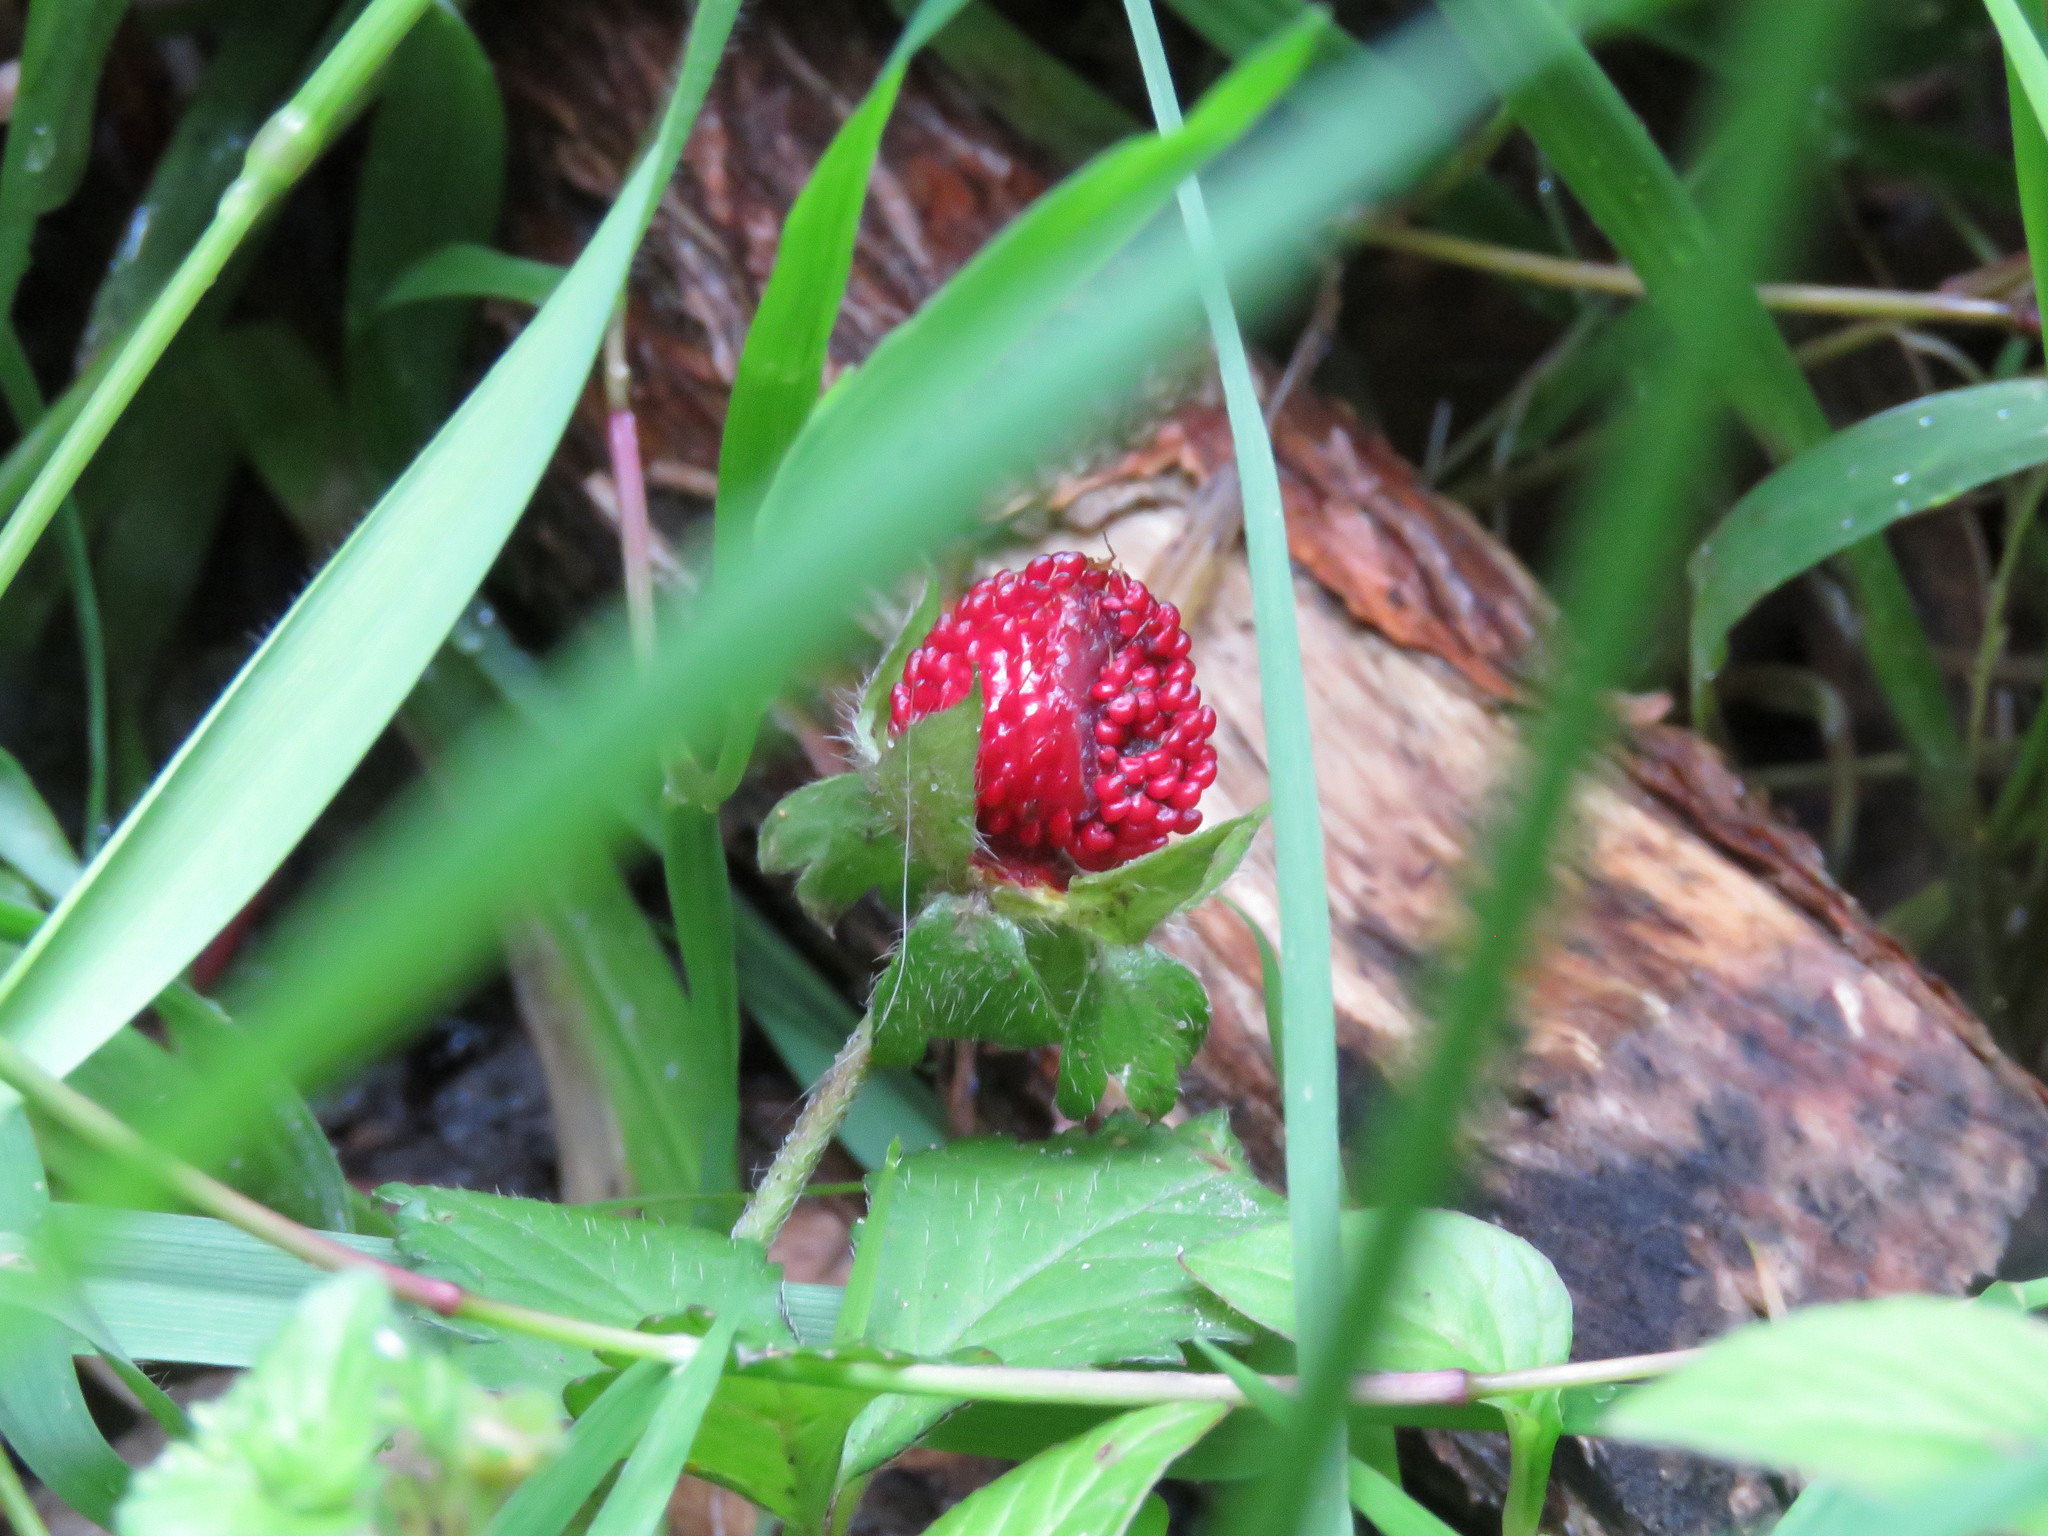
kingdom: Plantae
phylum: Tracheophyta
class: Magnoliopsida
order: Rosales
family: Rosaceae
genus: Potentilla
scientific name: Potentilla indica
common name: Yellow-flowered strawberry
